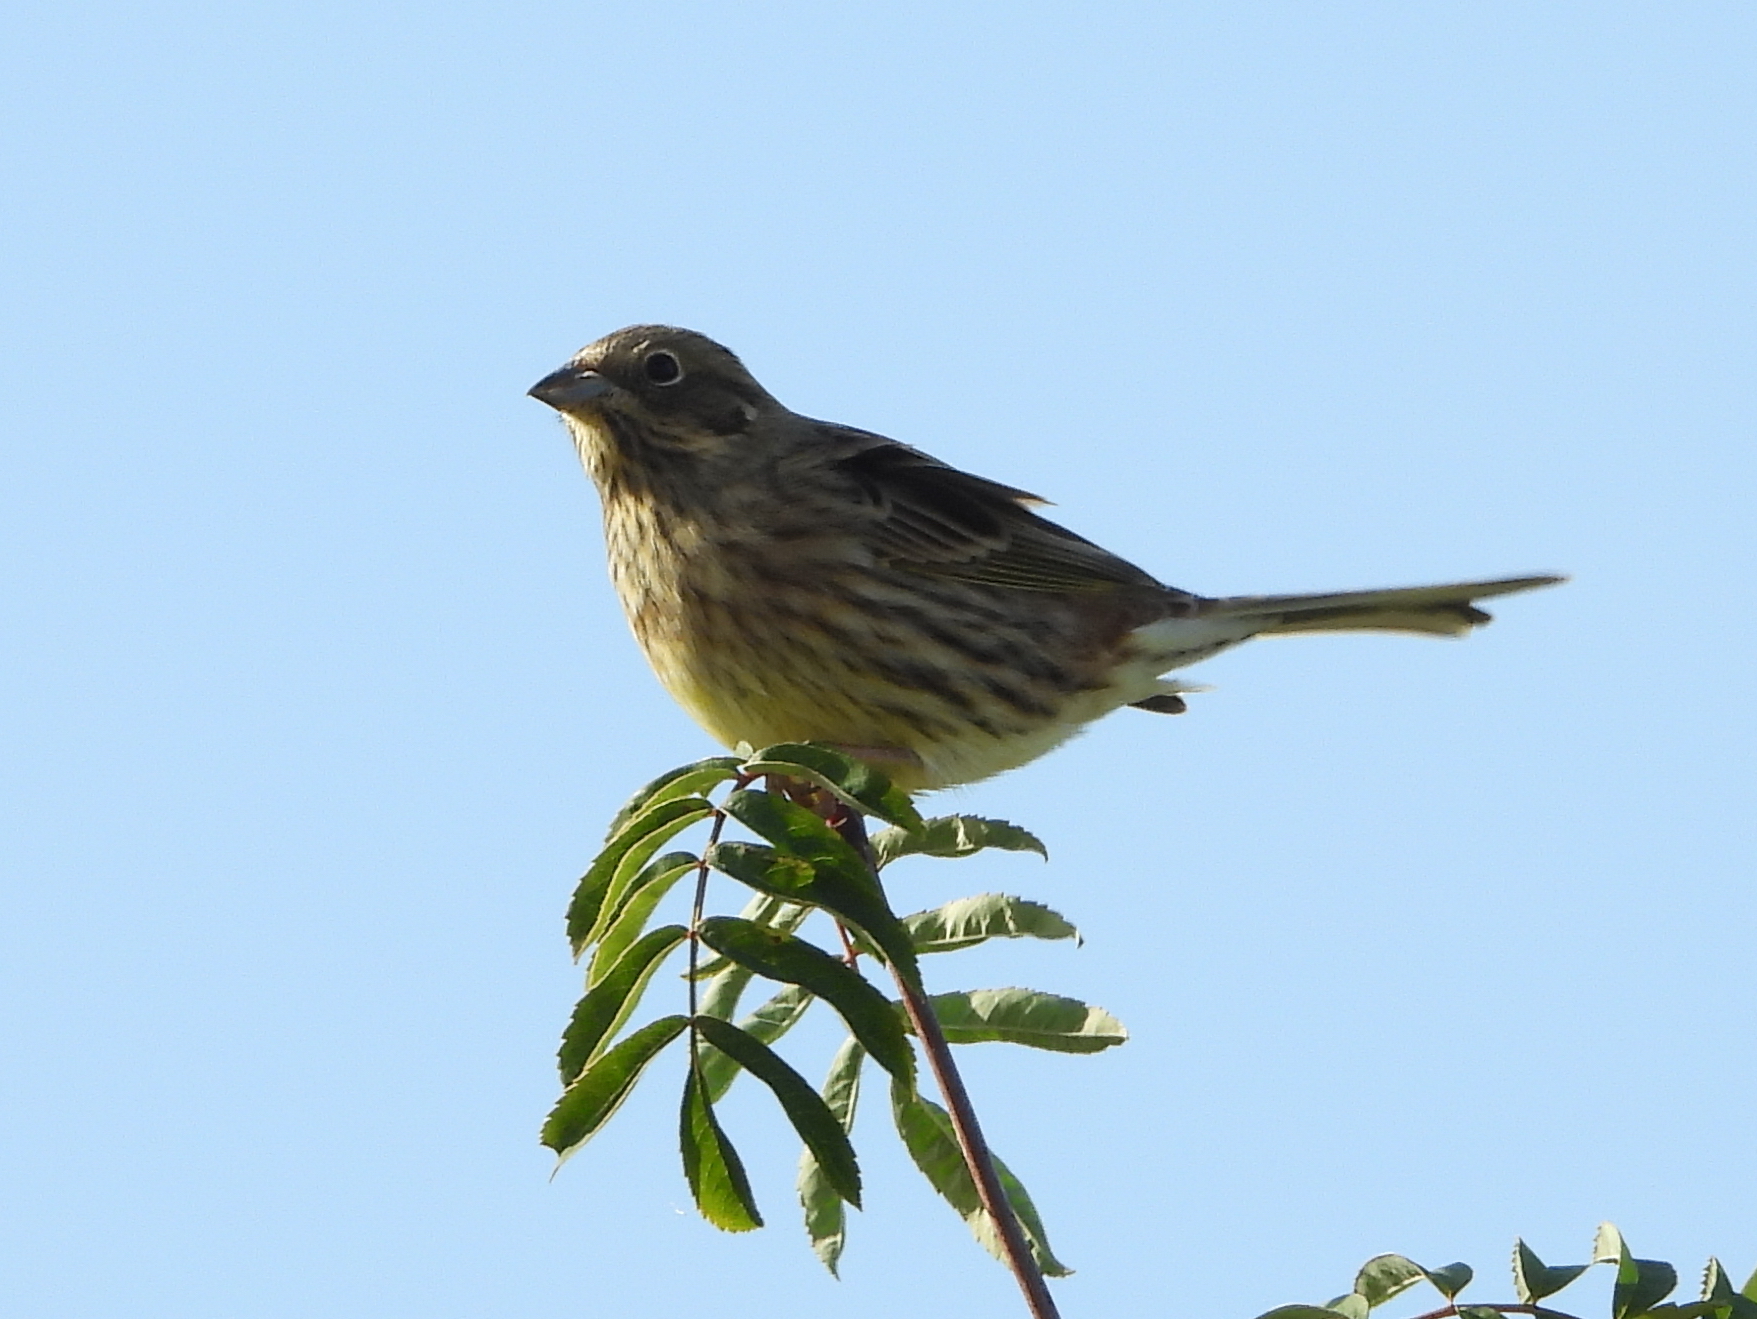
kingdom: Animalia
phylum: Chordata
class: Aves
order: Passeriformes
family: Emberizidae
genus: Emberiza
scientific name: Emberiza citrinella
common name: Yellowhammer
